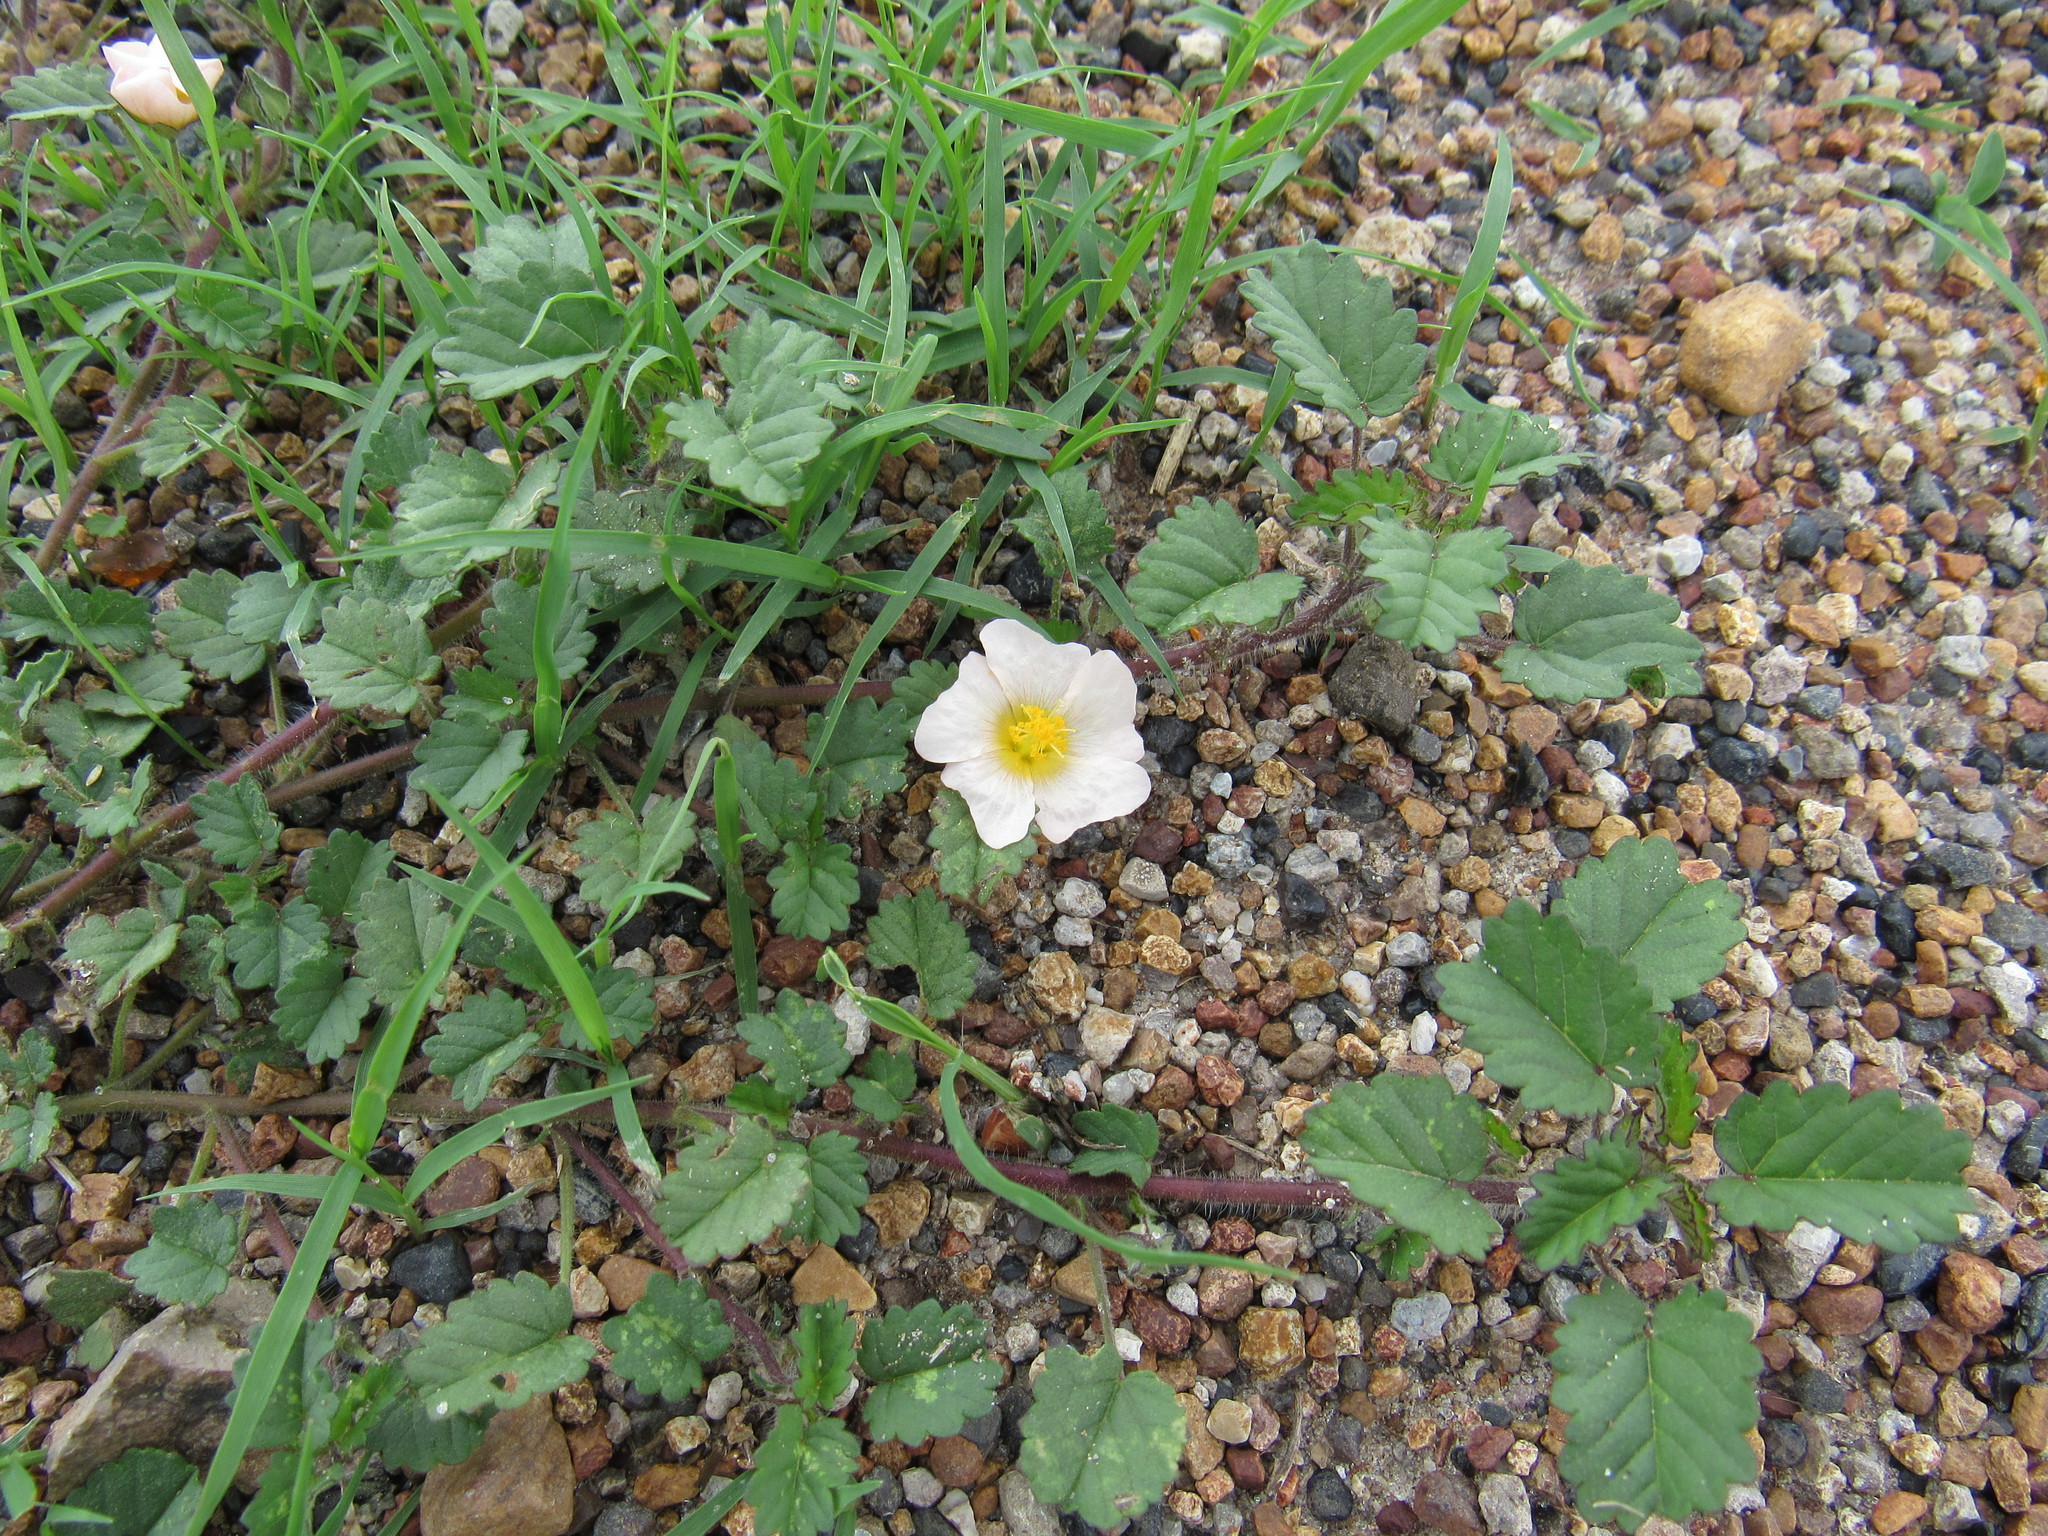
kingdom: Plantae
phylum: Tracheophyta
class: Magnoliopsida
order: Malvales
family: Malvaceae
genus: Malvastrum
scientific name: Malvastrum coromandelianum
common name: Threelobe false mallow
